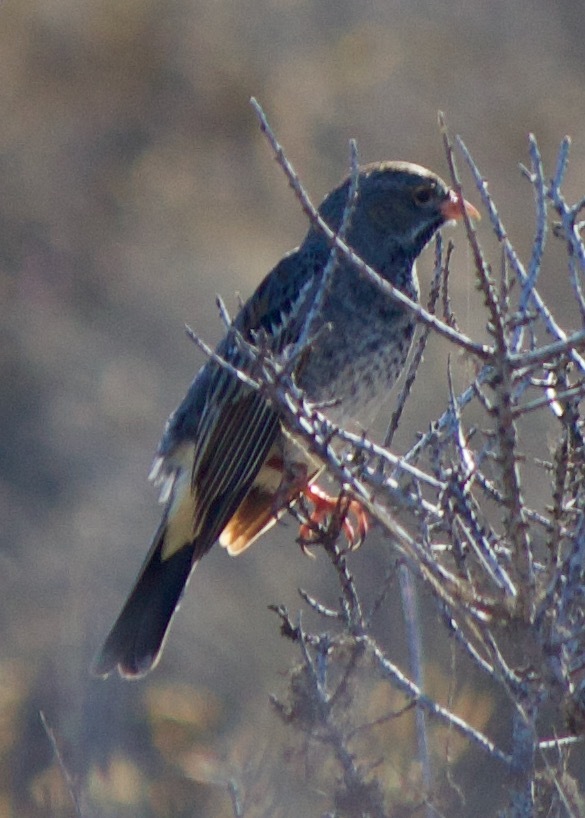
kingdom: Animalia
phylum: Chordata
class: Aves
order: Passeriformes
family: Thraupidae
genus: Rhopospina
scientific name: Rhopospina fruticeti
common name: Mourning sierra finch
